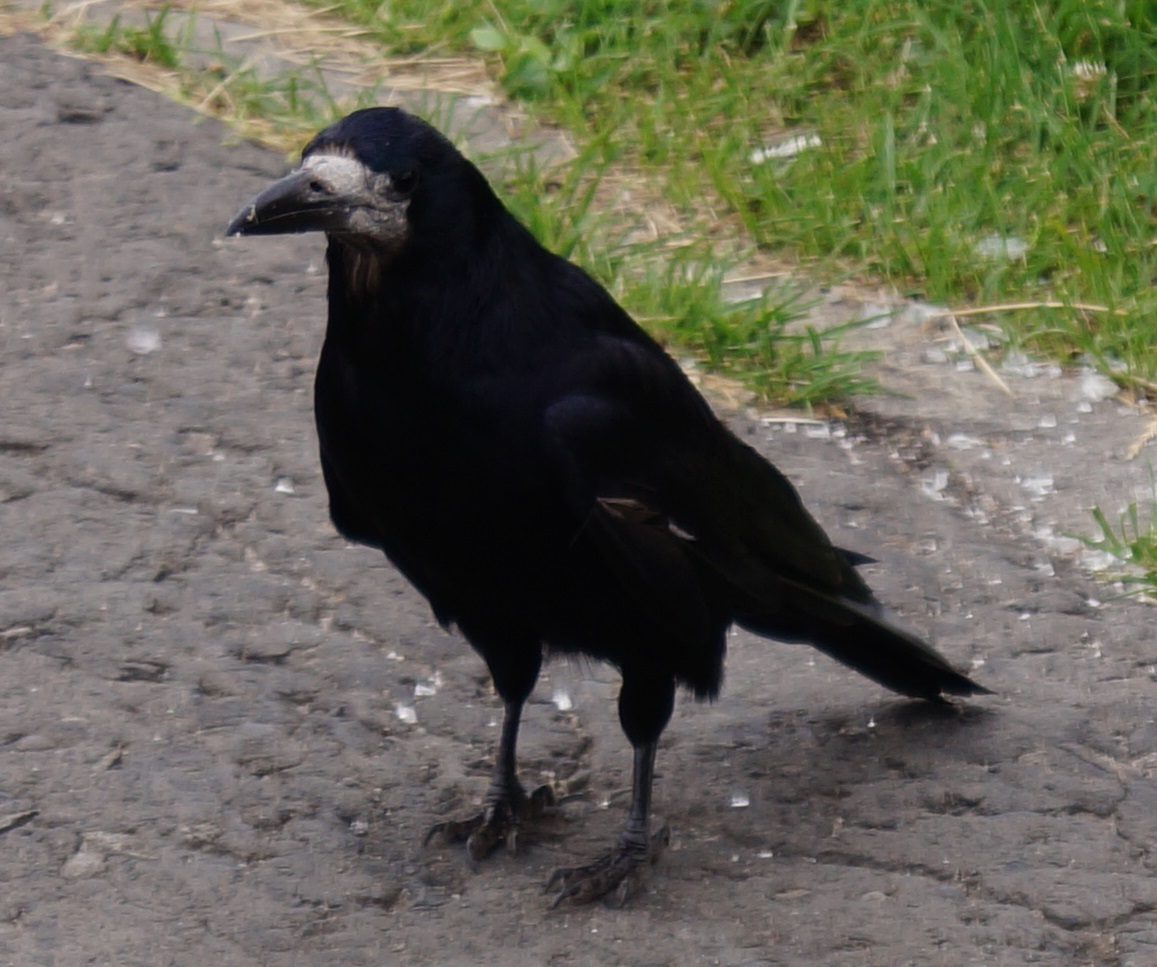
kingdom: Animalia
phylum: Chordata
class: Aves
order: Passeriformes
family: Corvidae
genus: Corvus
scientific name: Corvus frugilegus
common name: Rook
